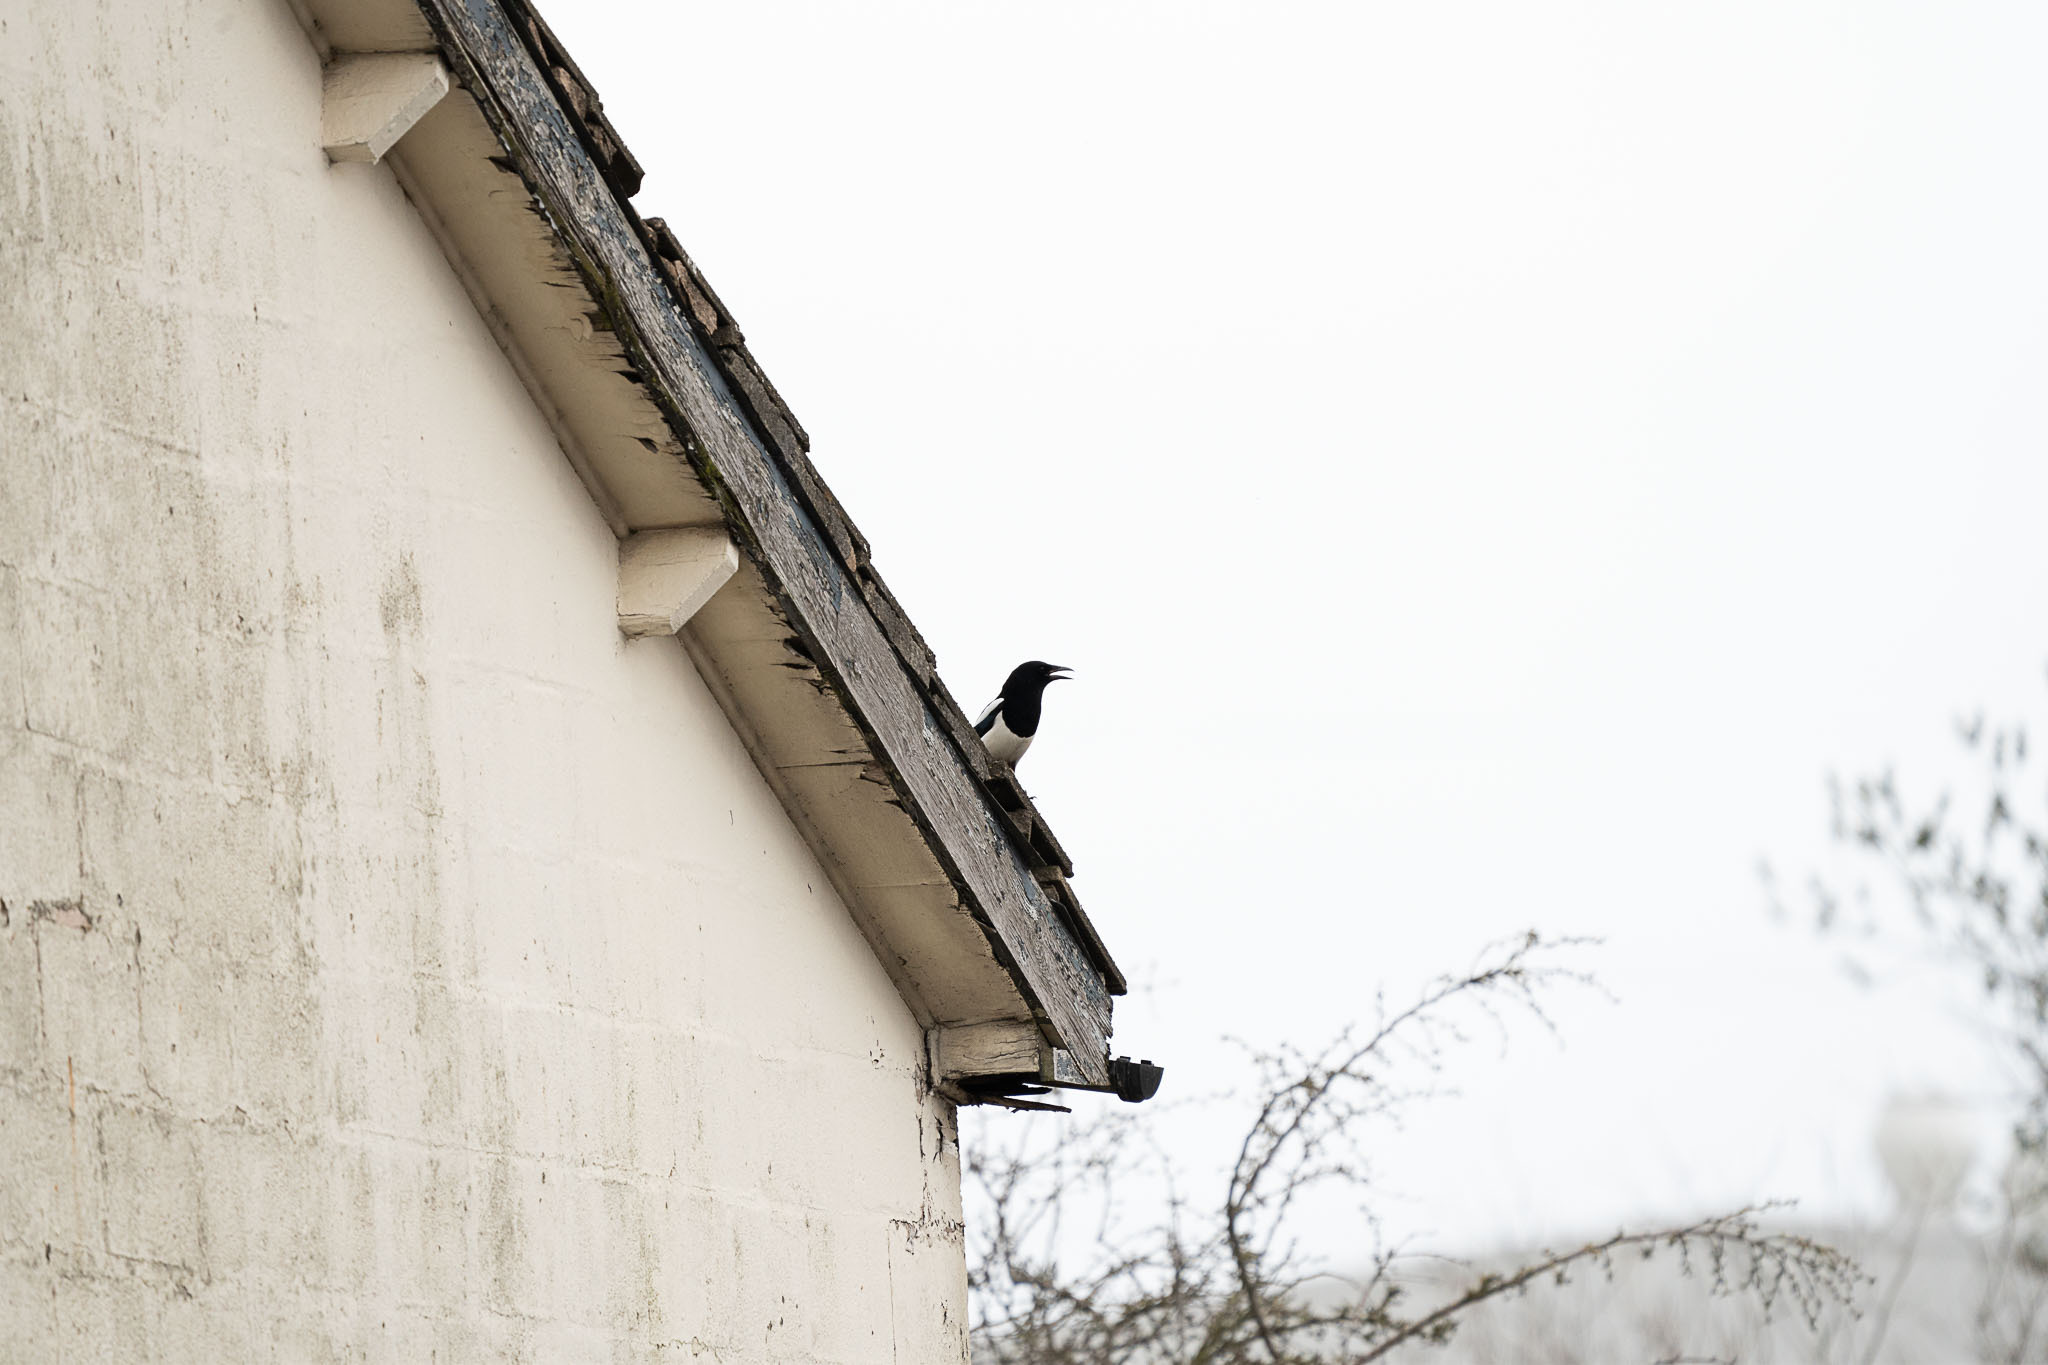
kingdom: Animalia
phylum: Chordata
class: Aves
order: Passeriformes
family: Corvidae
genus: Pica
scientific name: Pica pica
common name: Eurasian magpie
